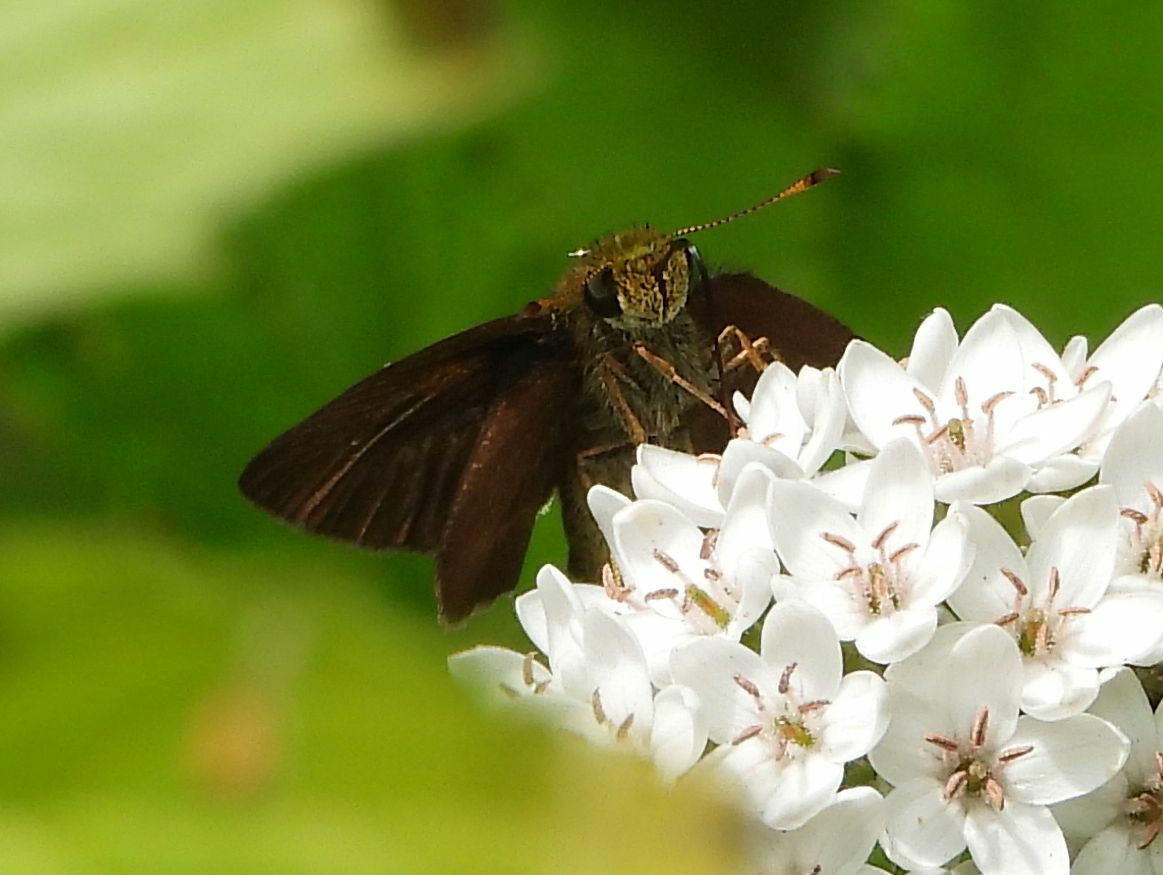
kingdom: Animalia
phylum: Arthropoda
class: Insecta
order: Lepidoptera
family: Hesperiidae
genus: Euphyes
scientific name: Euphyes vestris
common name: Dun skipper
